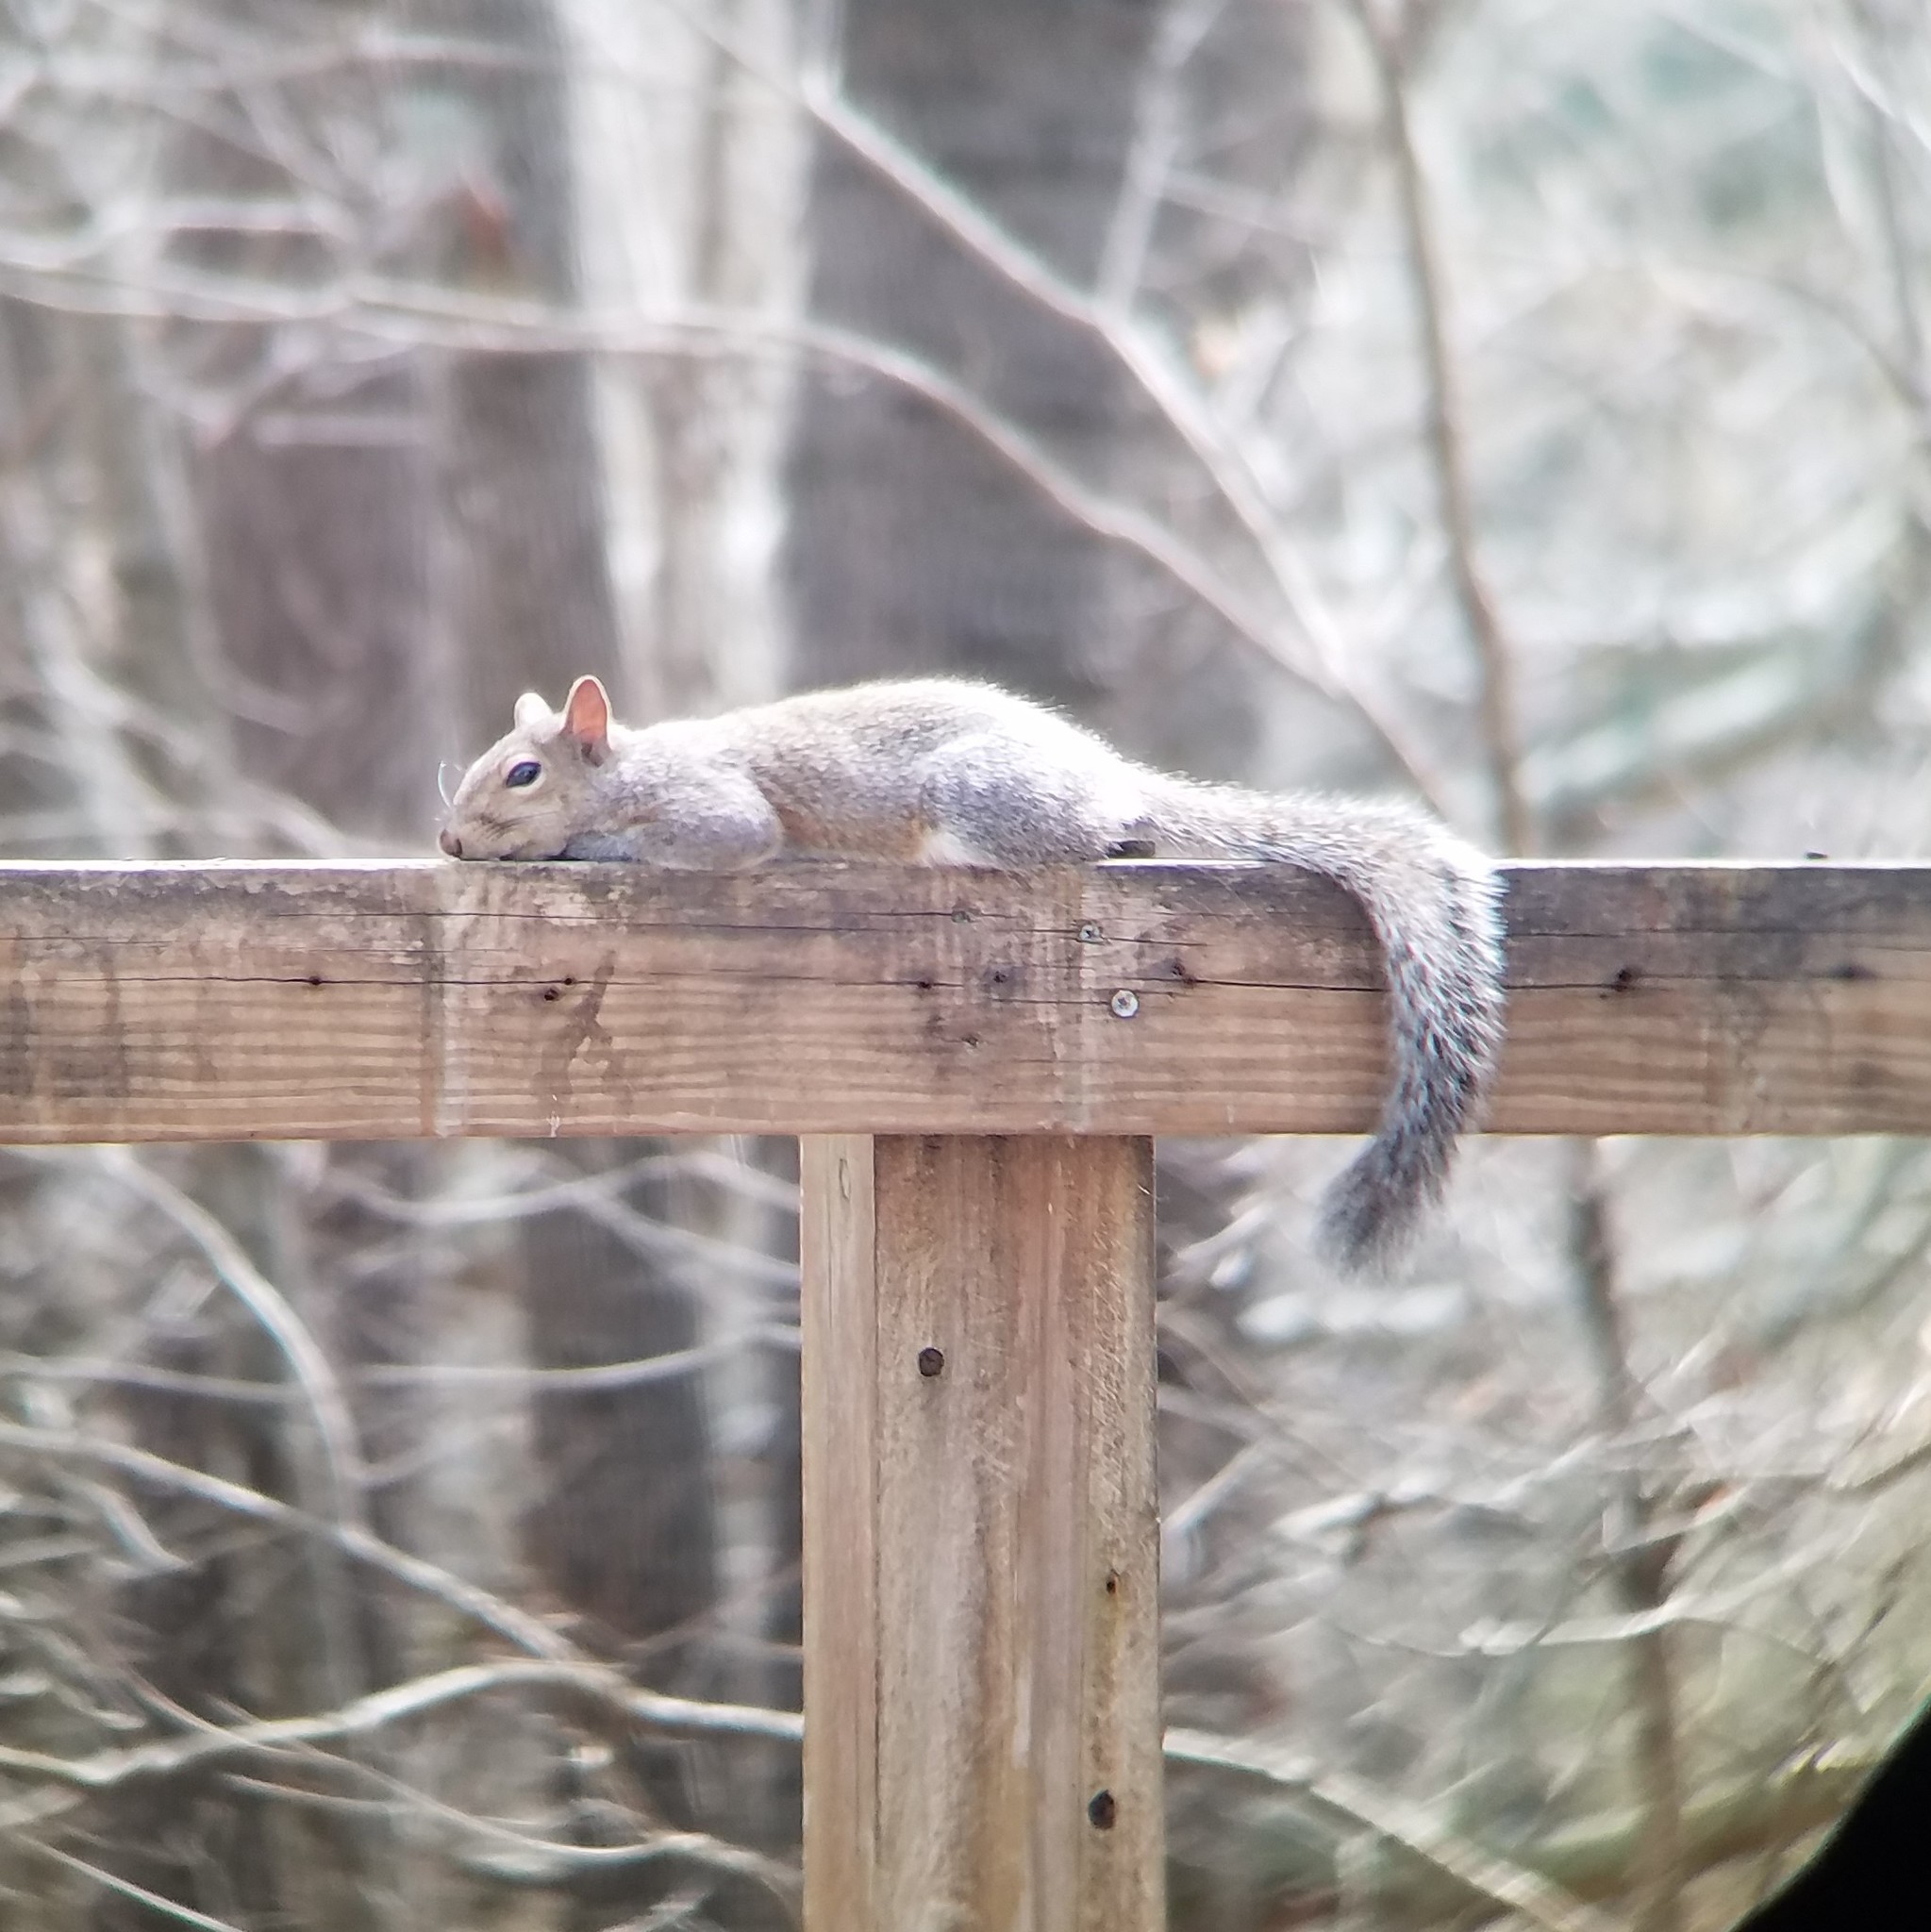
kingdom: Animalia
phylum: Chordata
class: Mammalia
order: Rodentia
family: Sciuridae
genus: Sciurus
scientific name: Sciurus carolinensis
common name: Eastern gray squirrel
